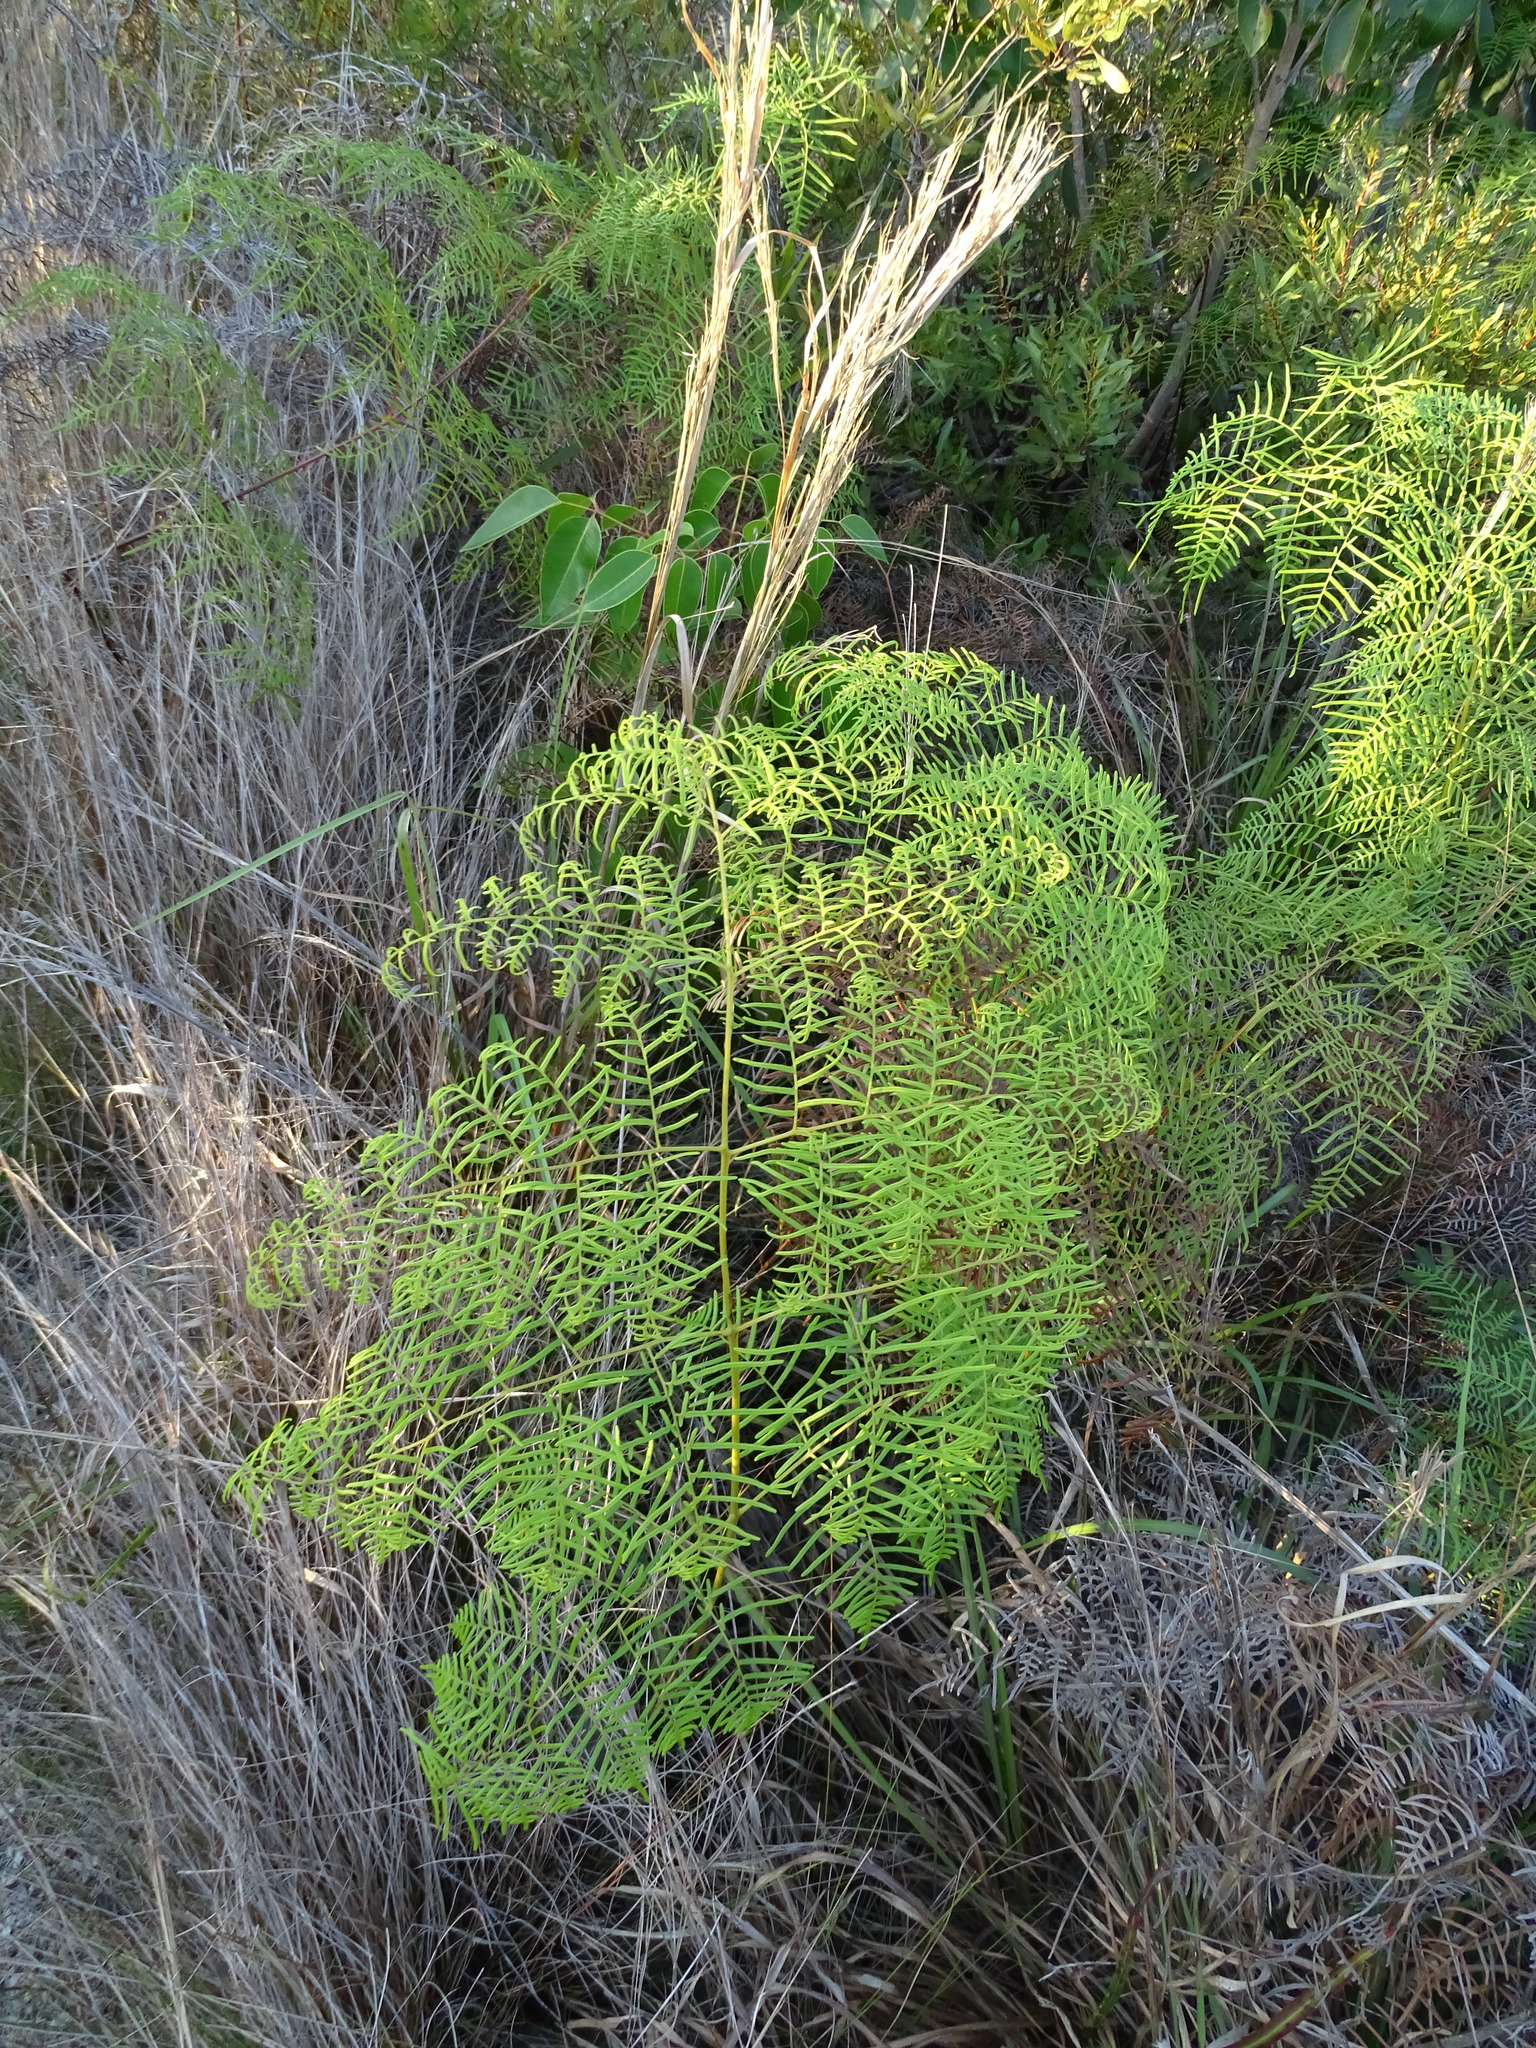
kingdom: Plantae
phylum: Tracheophyta
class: Polypodiopsida
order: Polypodiales
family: Dennstaedtiaceae
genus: Pteridium
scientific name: Pteridium caudatum
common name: Southern bracken fern
